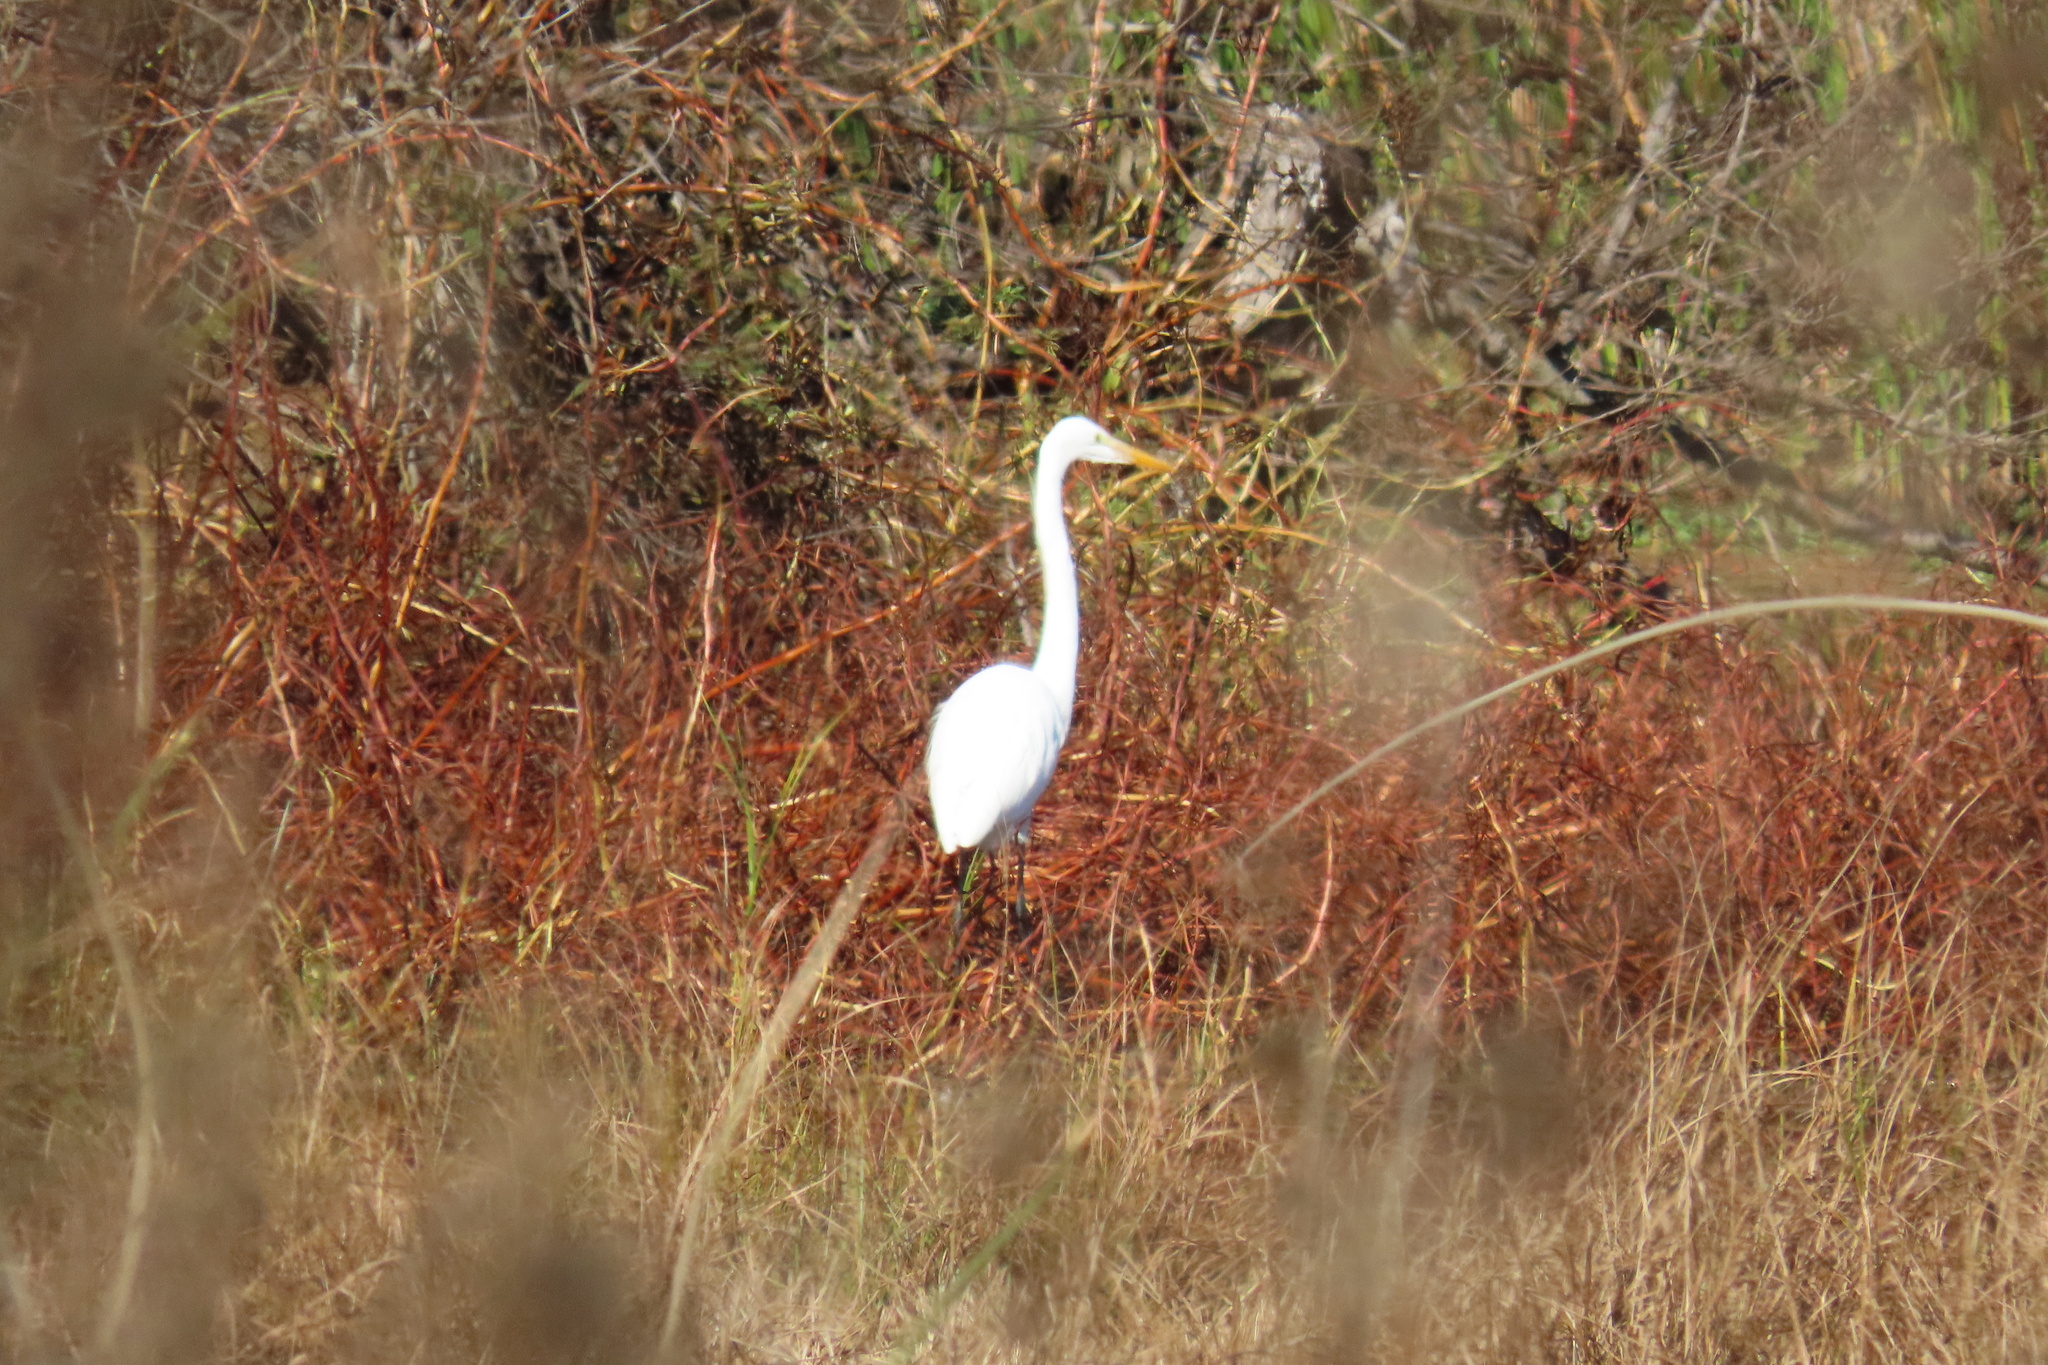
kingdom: Animalia
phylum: Chordata
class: Aves
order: Pelecaniformes
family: Ardeidae
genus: Ardea
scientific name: Ardea alba
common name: Great egret
